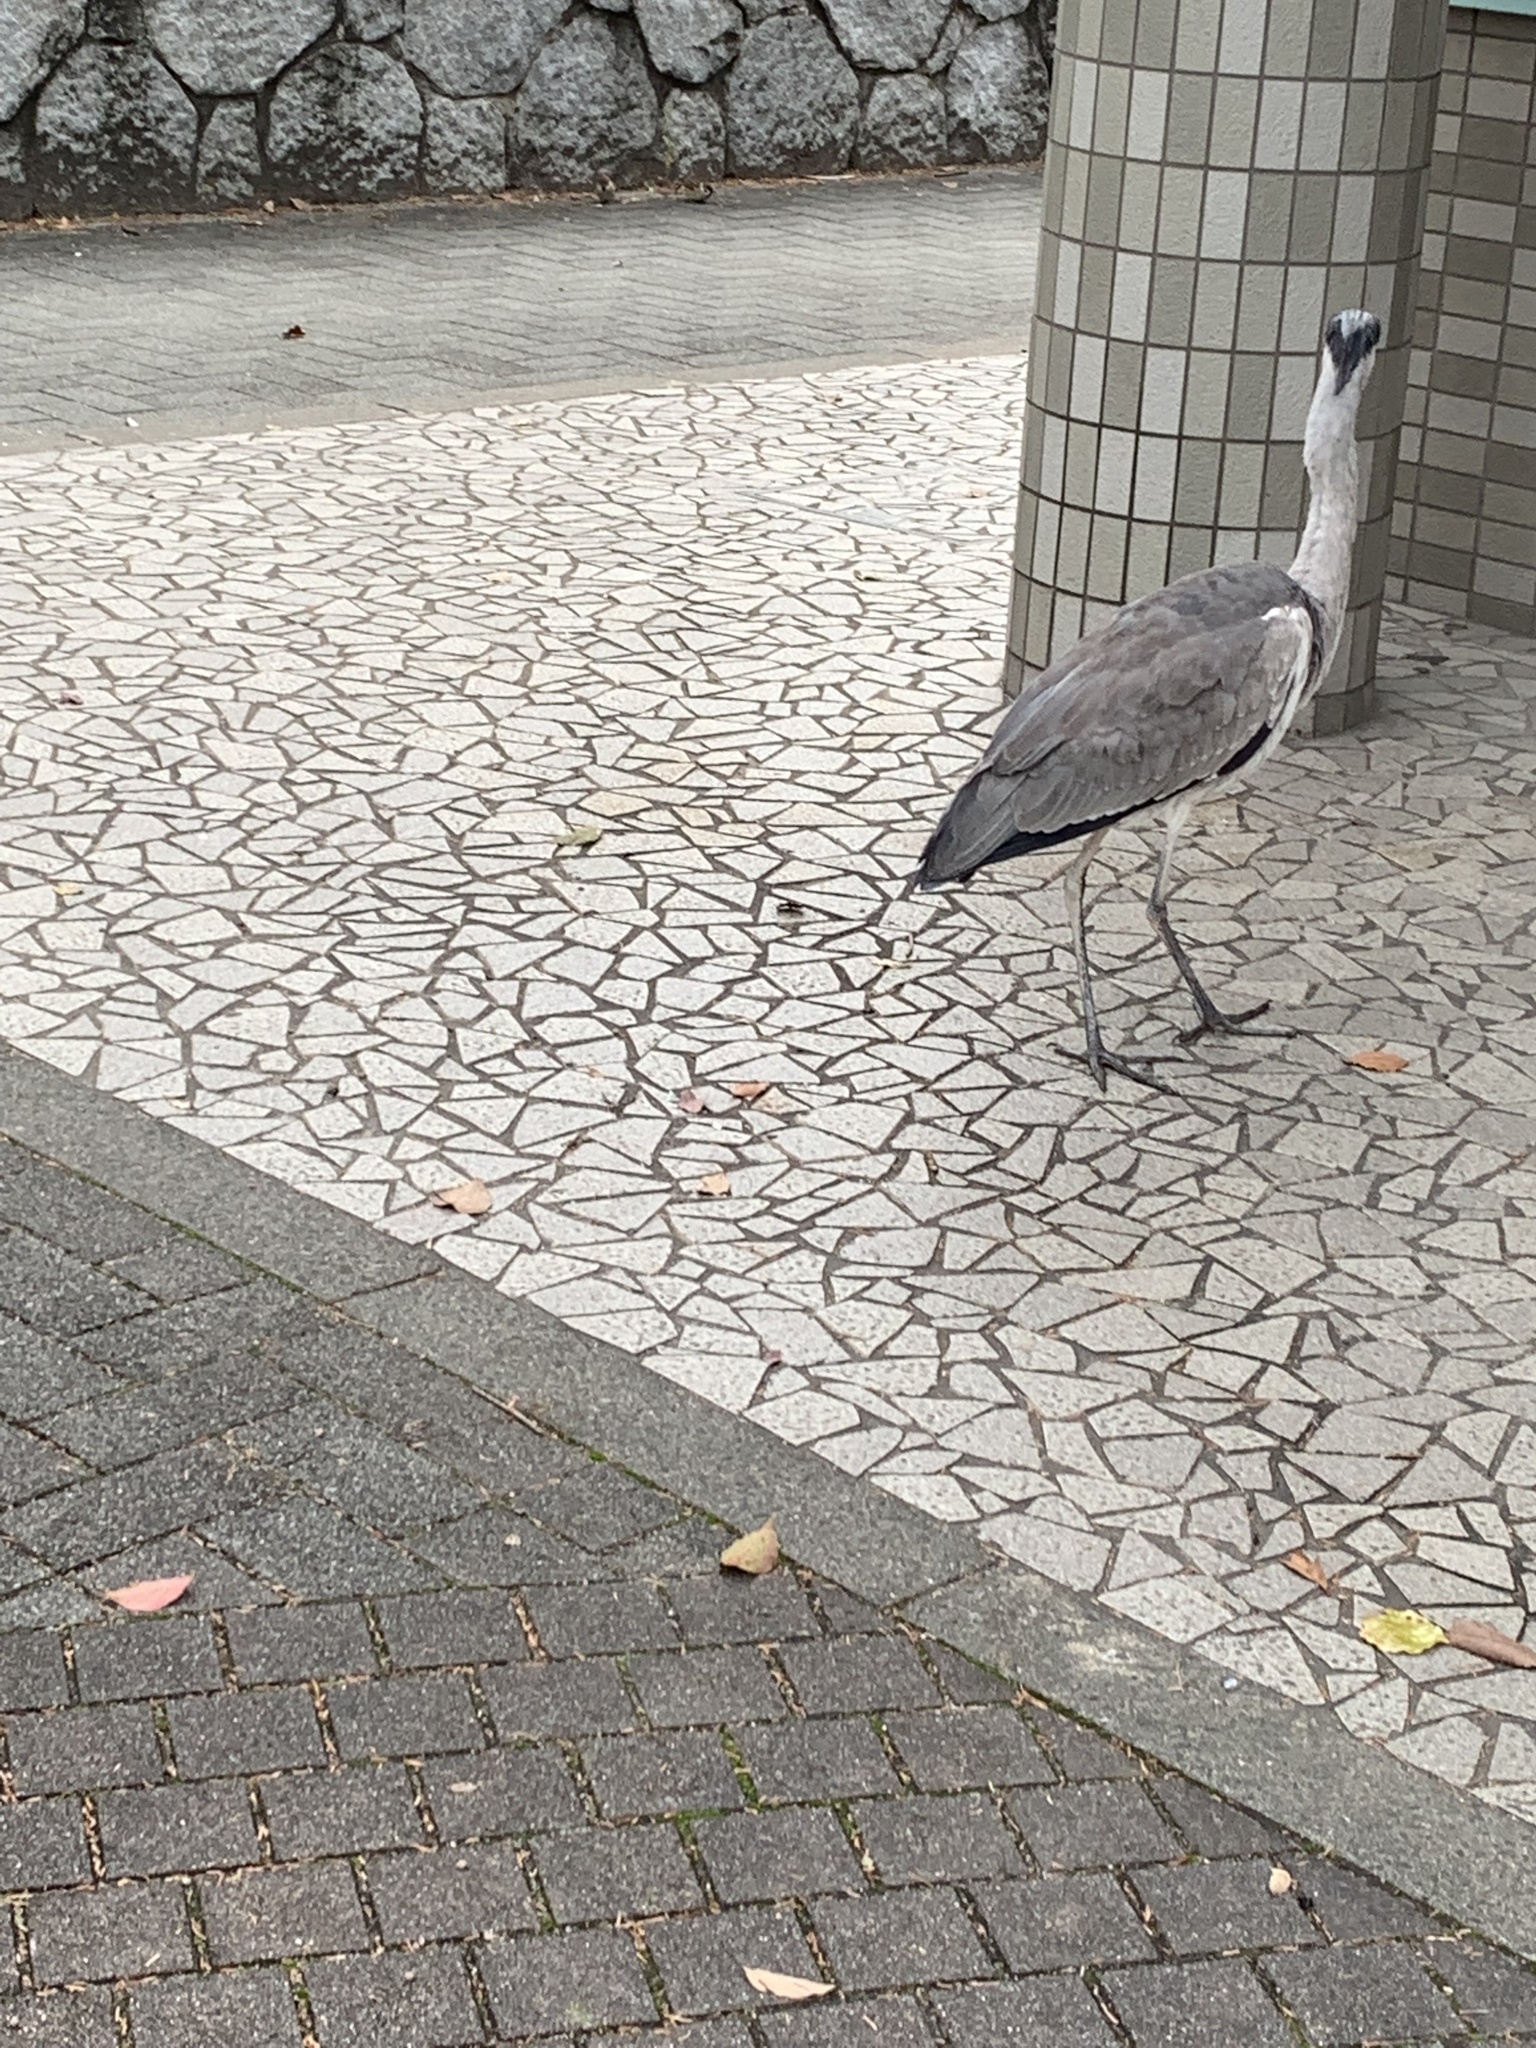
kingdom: Animalia
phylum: Chordata
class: Aves
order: Pelecaniformes
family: Ardeidae
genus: Ardea
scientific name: Ardea cinerea
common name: Grey heron
